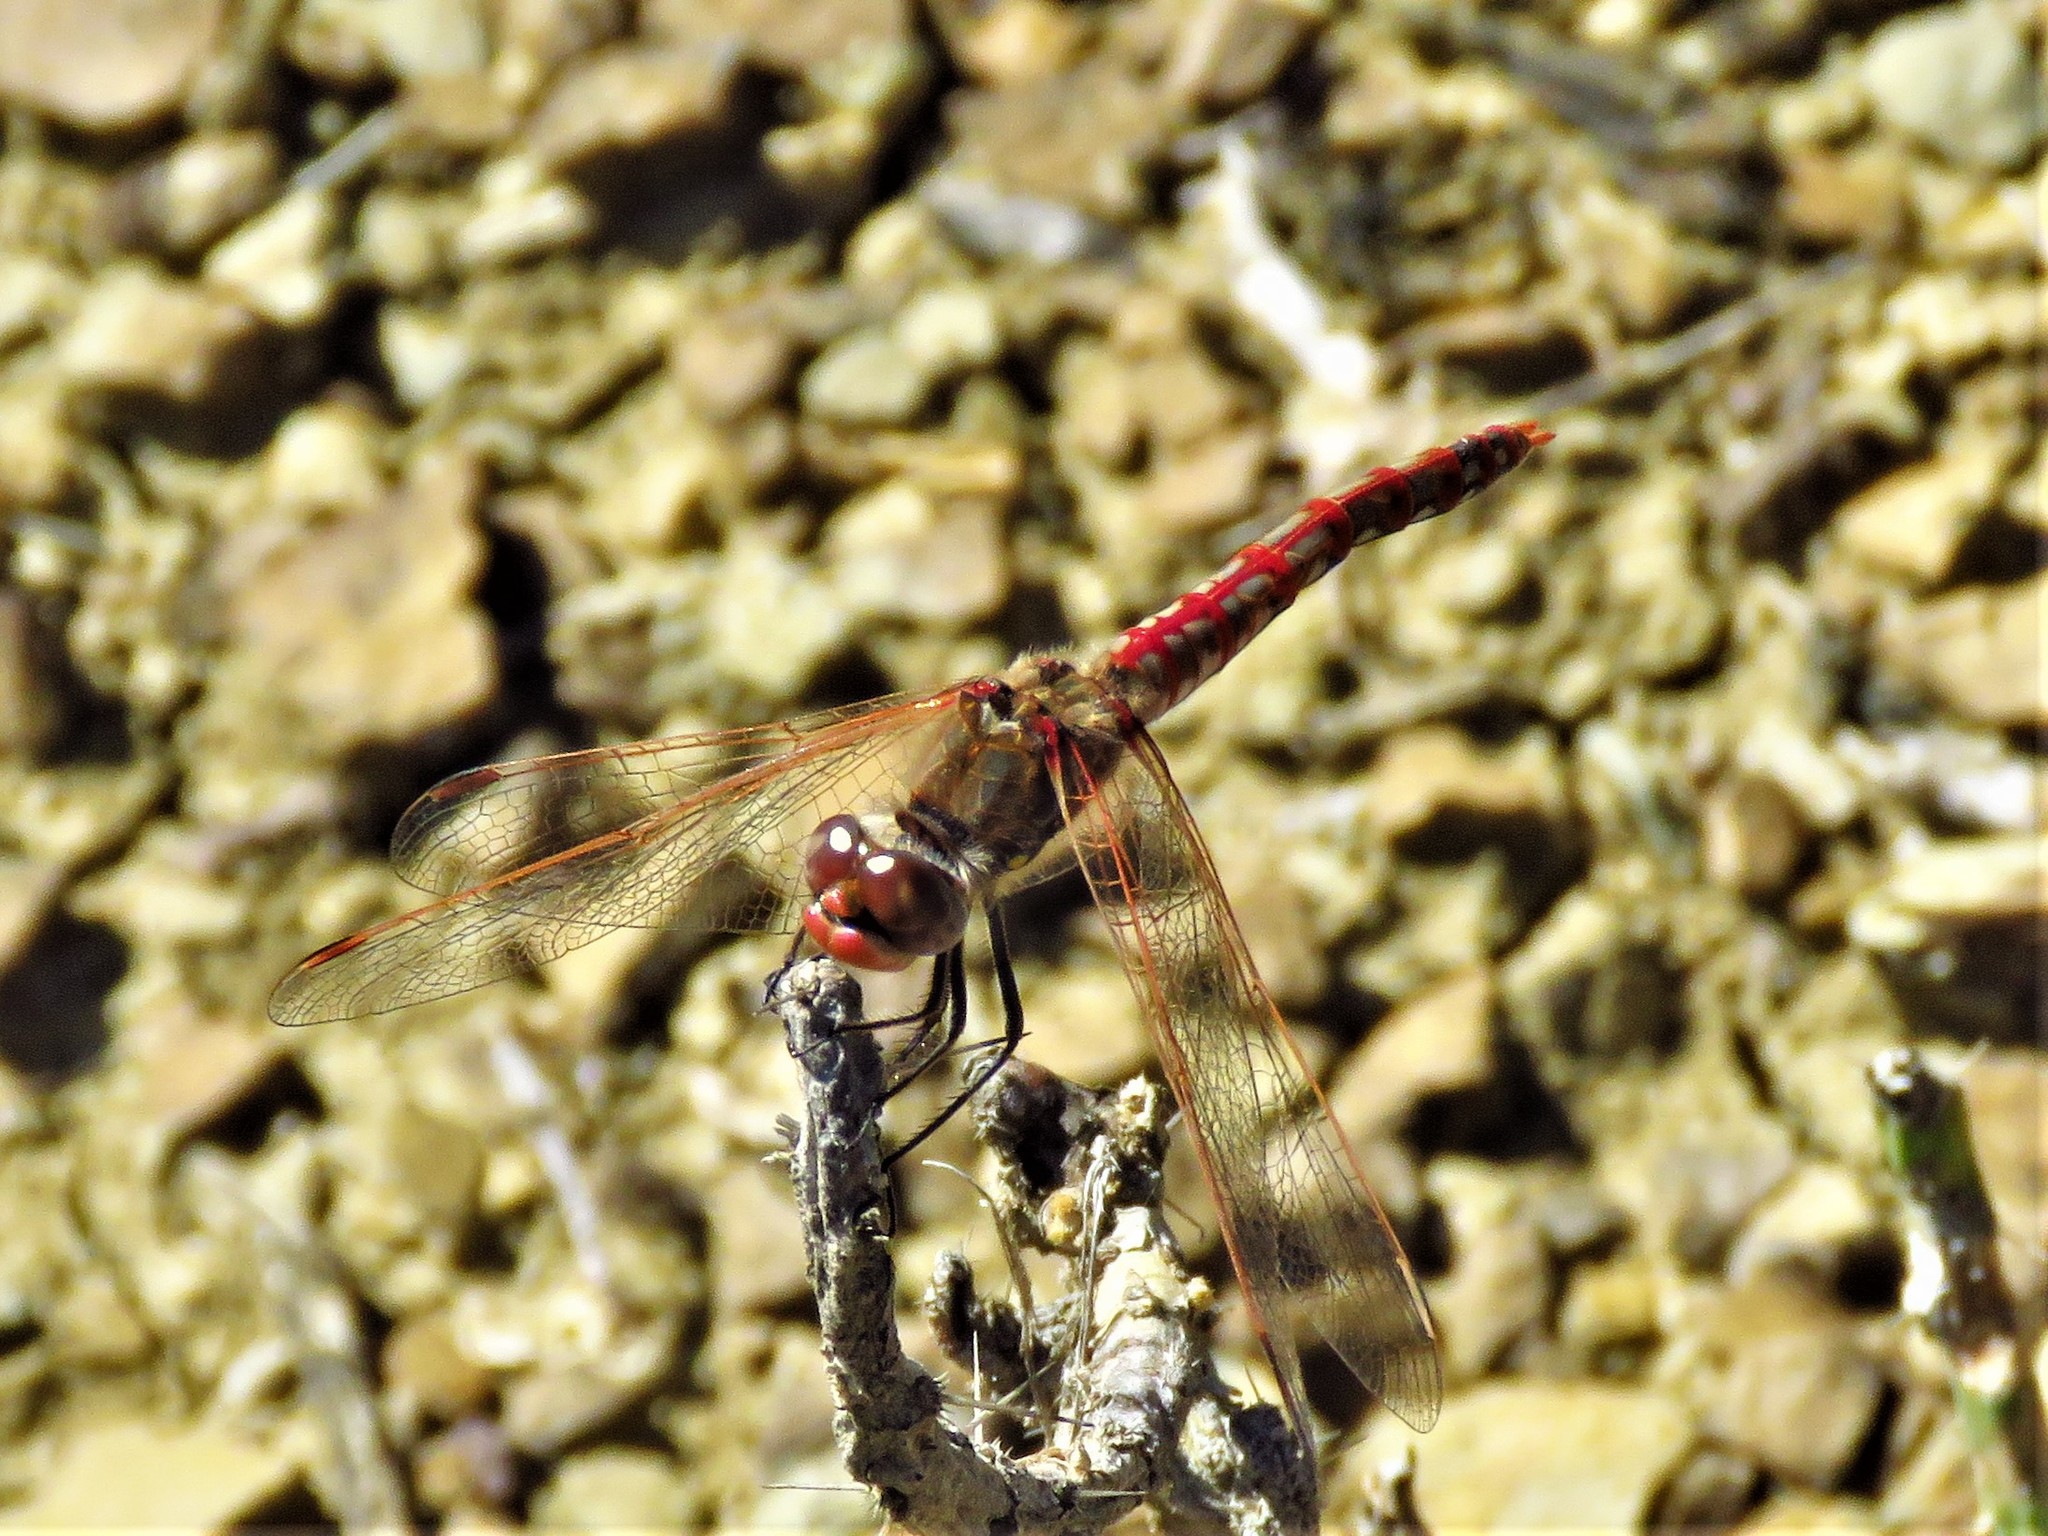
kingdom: Animalia
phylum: Arthropoda
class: Insecta
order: Odonata
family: Libellulidae
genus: Sympetrum
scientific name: Sympetrum corruptum
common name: Variegated meadowhawk
